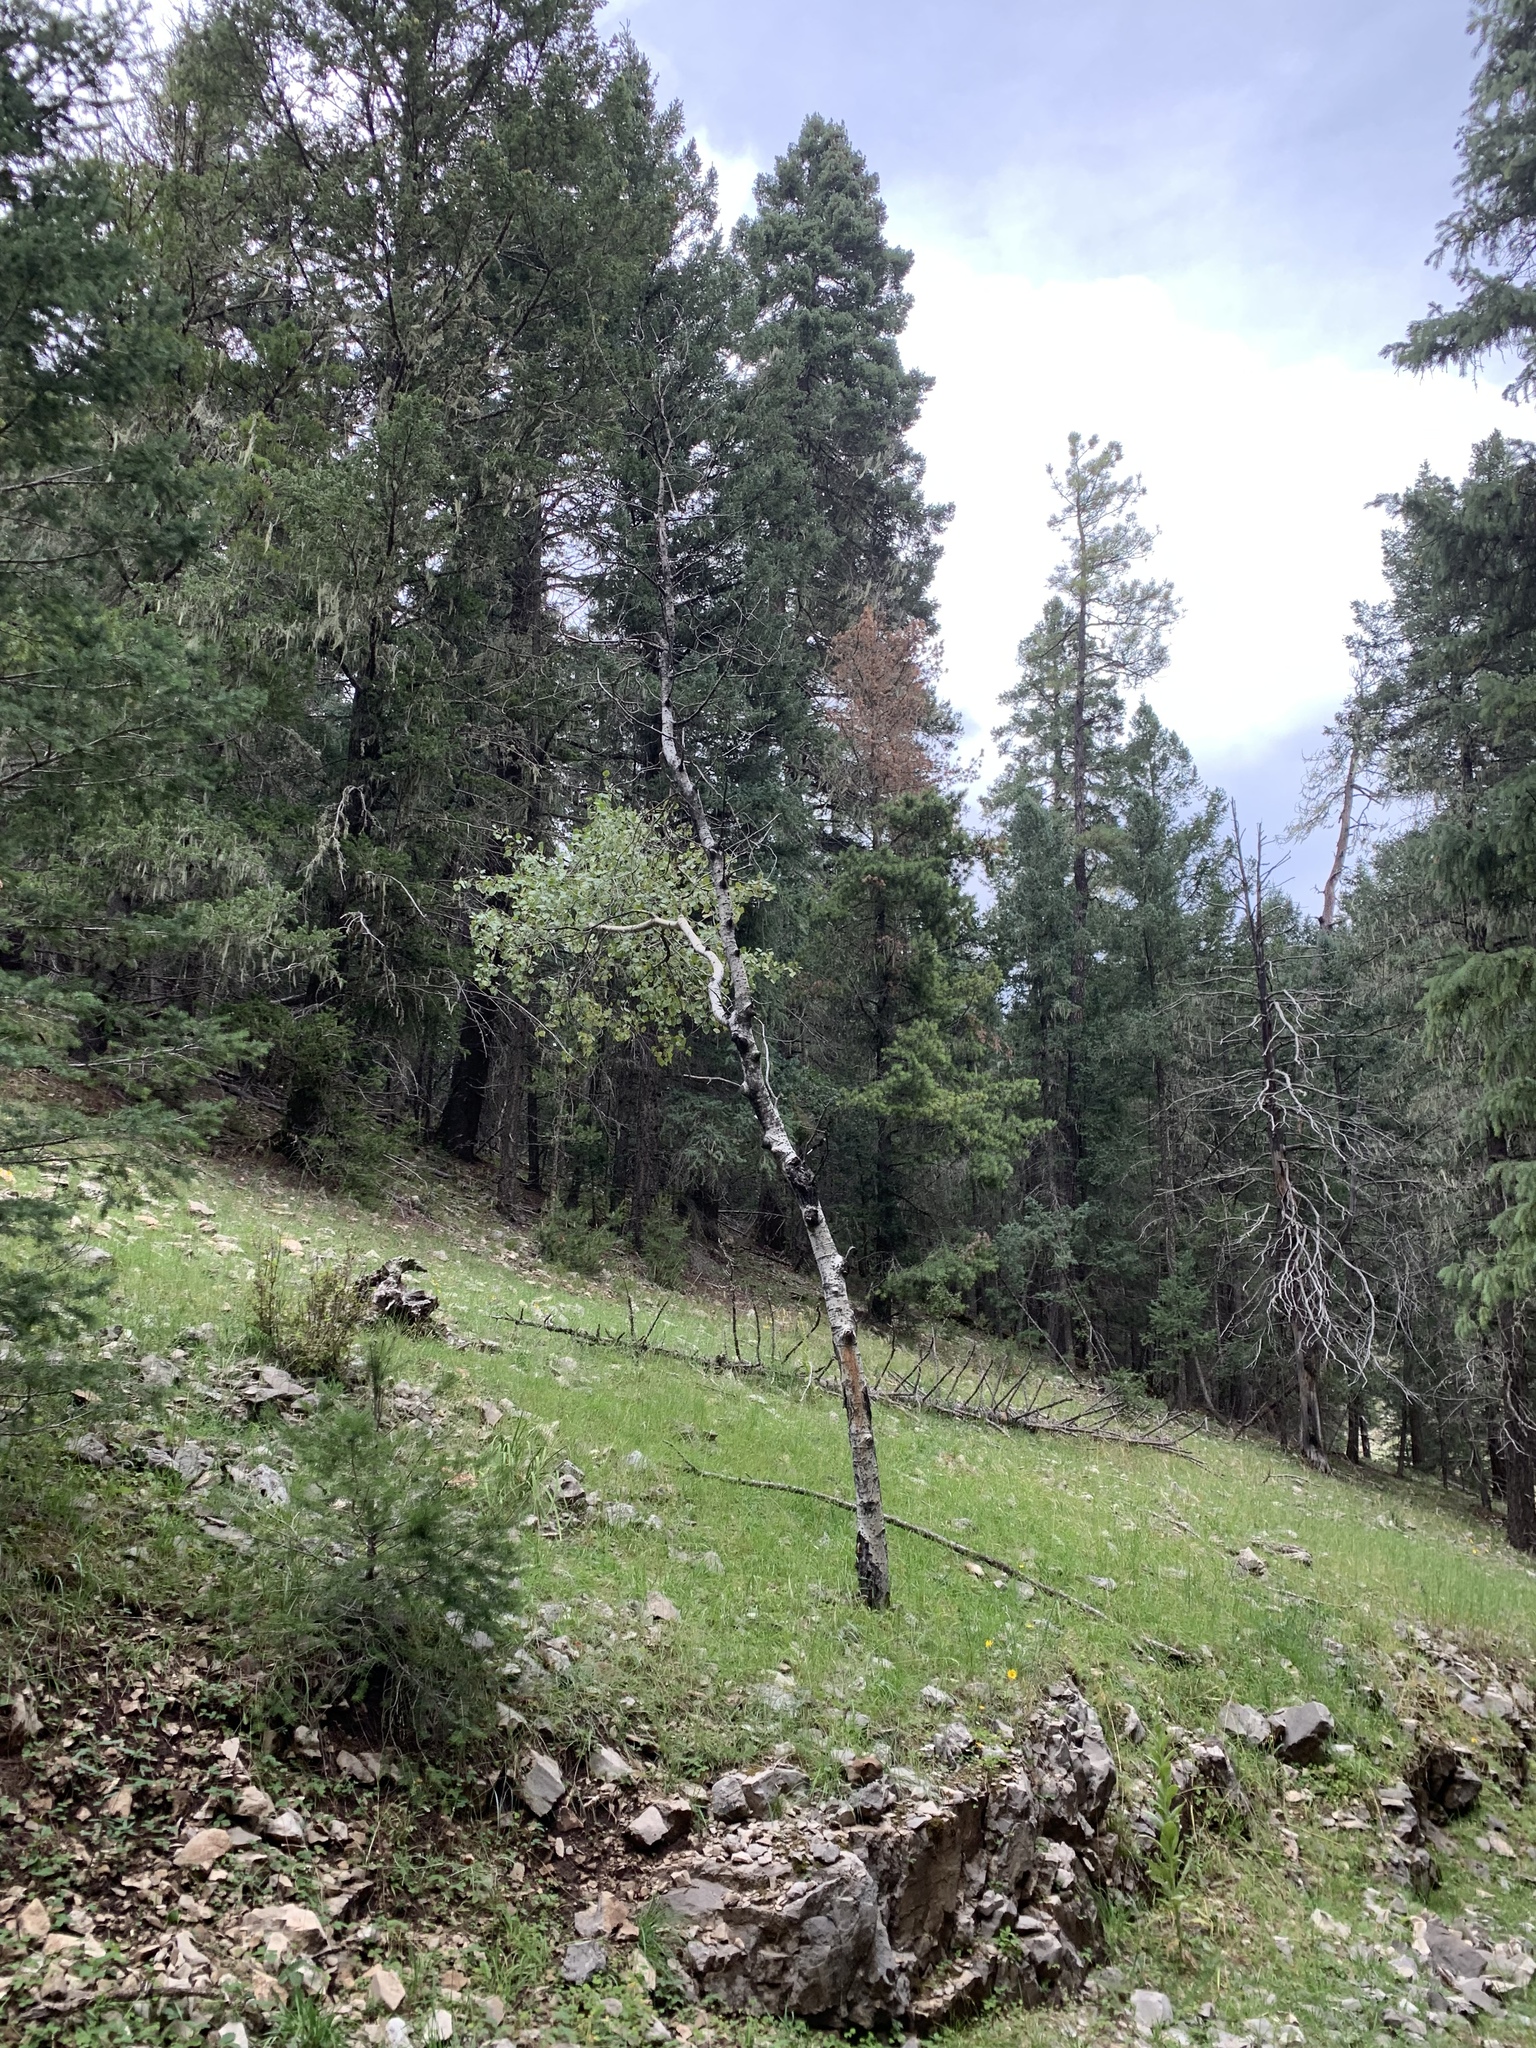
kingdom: Plantae
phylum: Tracheophyta
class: Magnoliopsida
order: Malpighiales
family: Salicaceae
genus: Populus
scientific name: Populus tremuloides
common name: Quaking aspen
